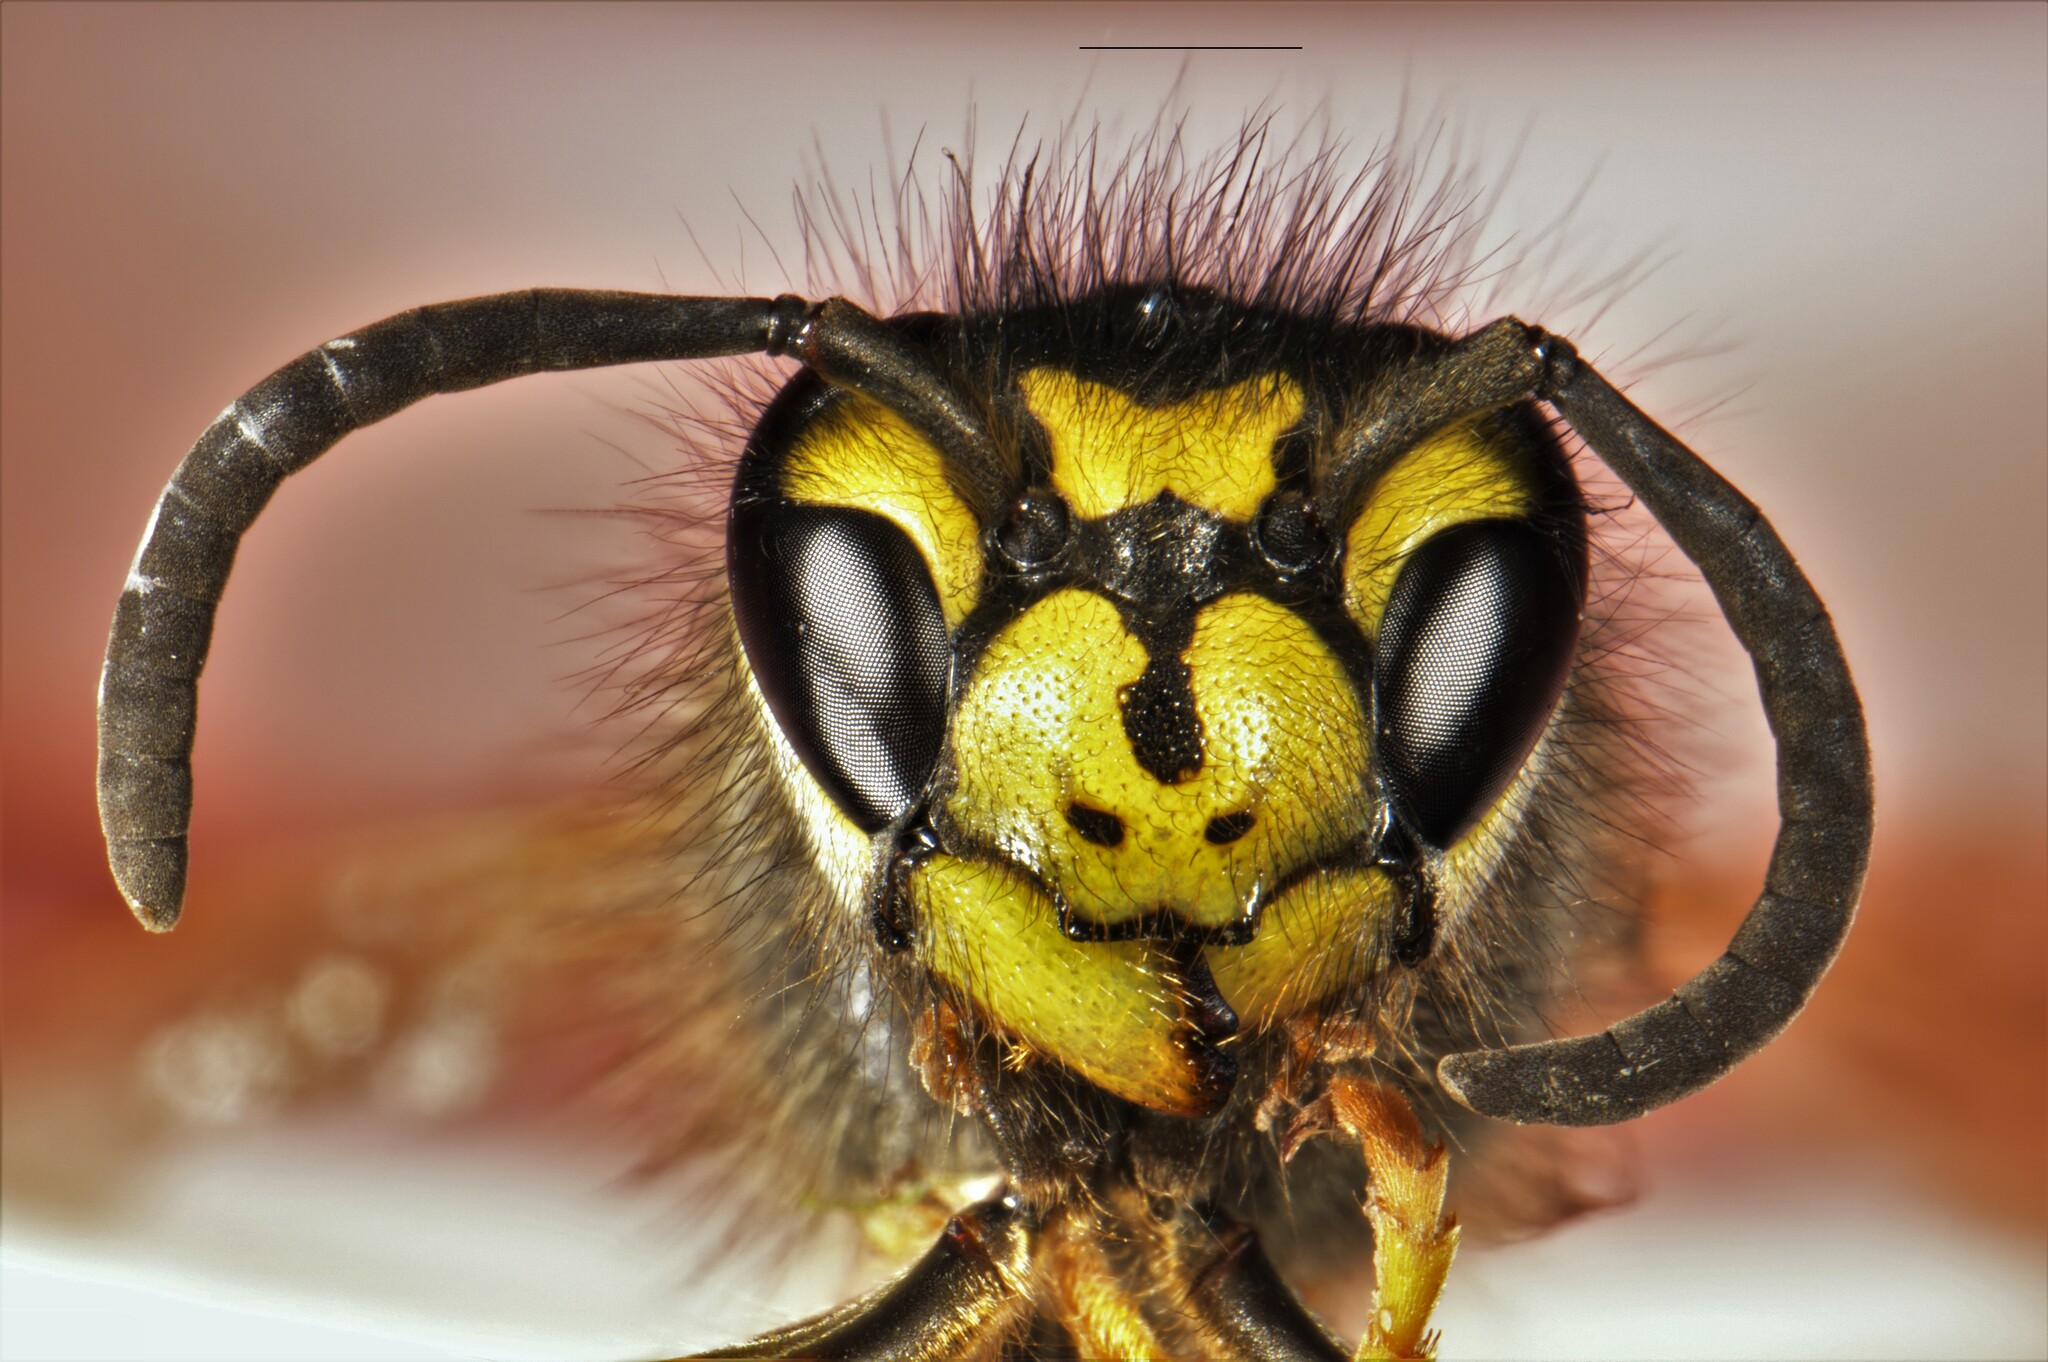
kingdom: Animalia
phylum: Arthropoda
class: Insecta
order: Hymenoptera
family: Vespidae
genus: Vespula
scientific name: Vespula germanica
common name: German wasp
